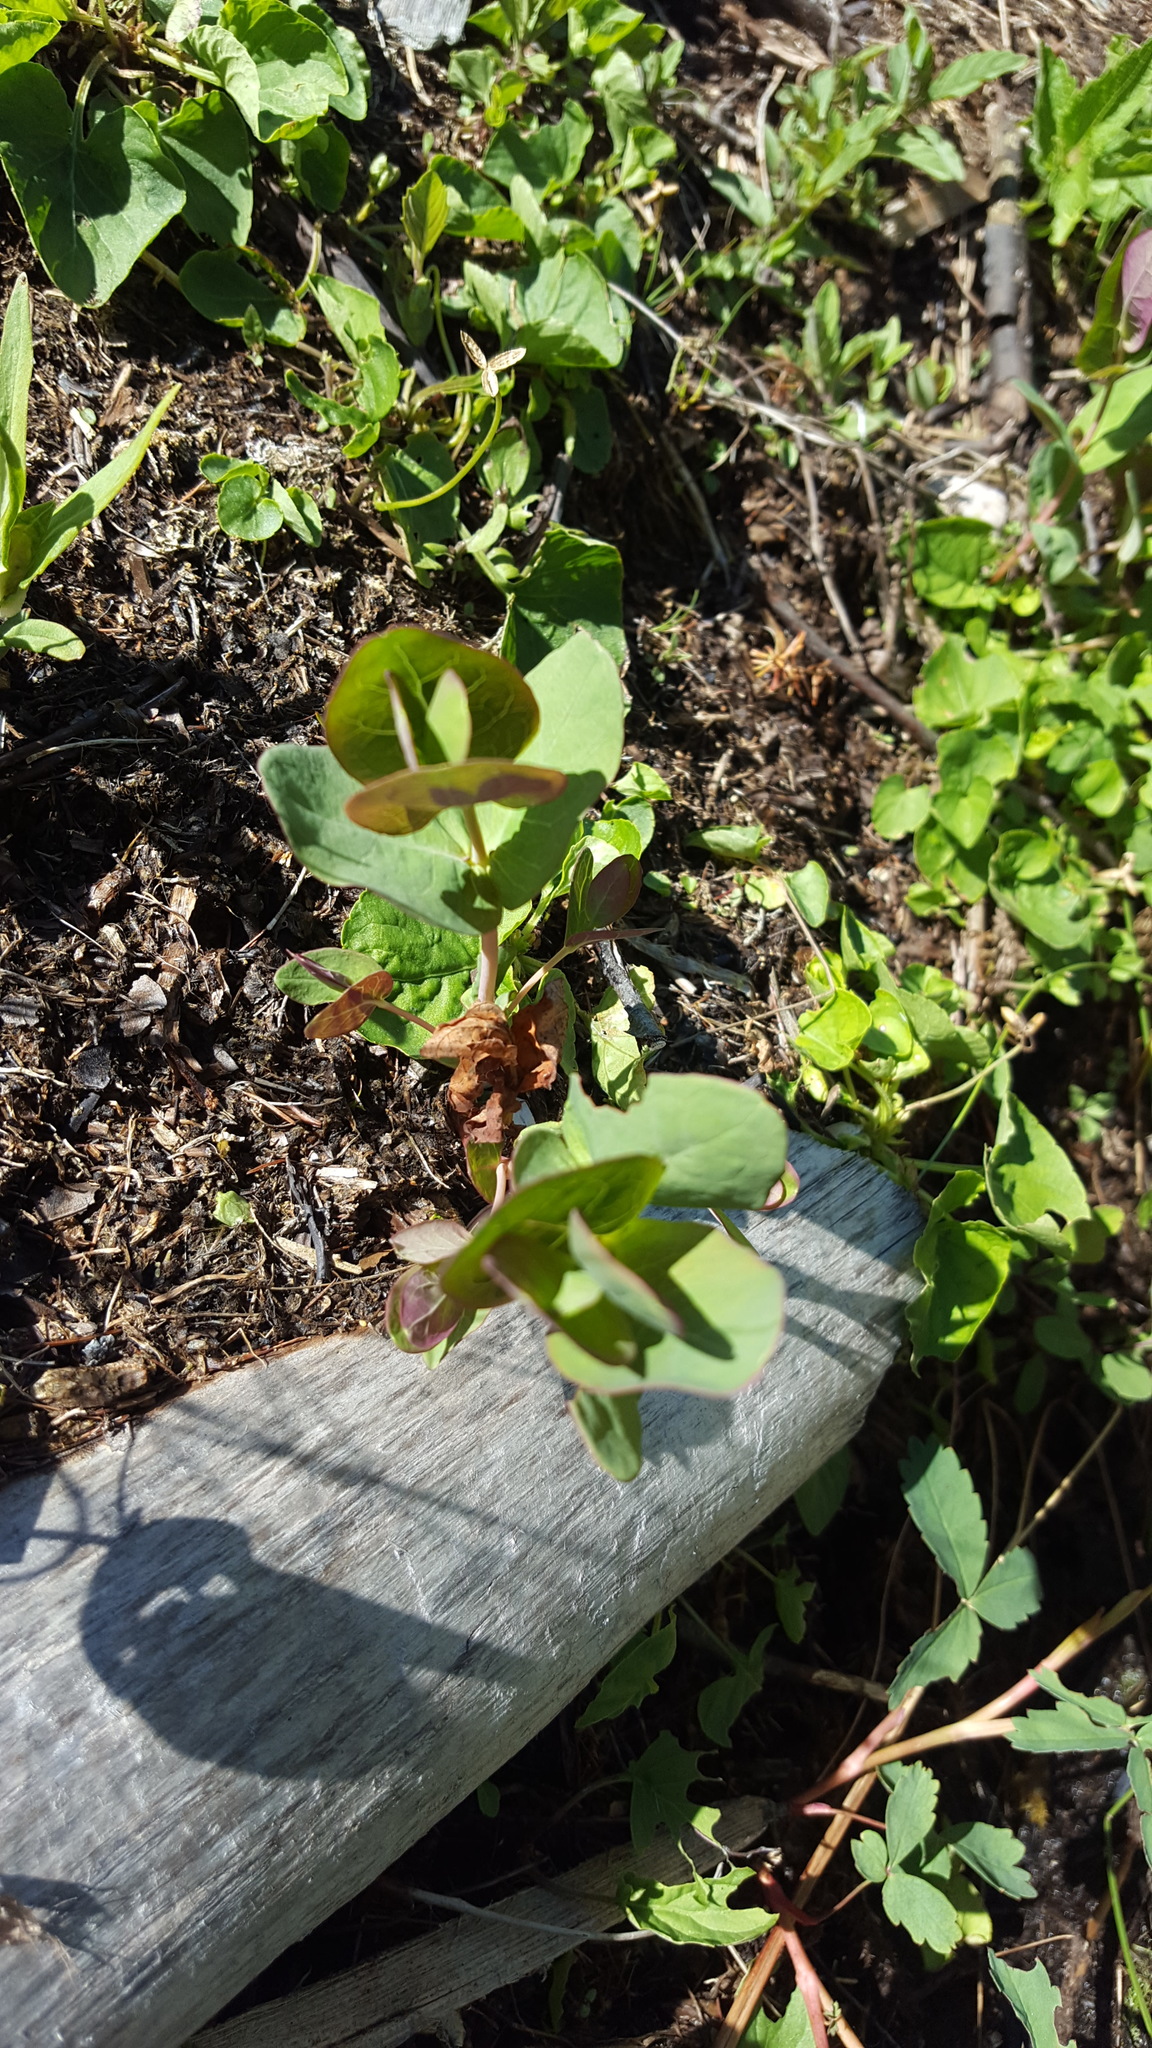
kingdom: Plantae
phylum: Tracheophyta
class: Magnoliopsida
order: Malpighiales
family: Hypericaceae
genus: Triadenum
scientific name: Triadenum fraseri
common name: Fraser's marsh st. johnswort
